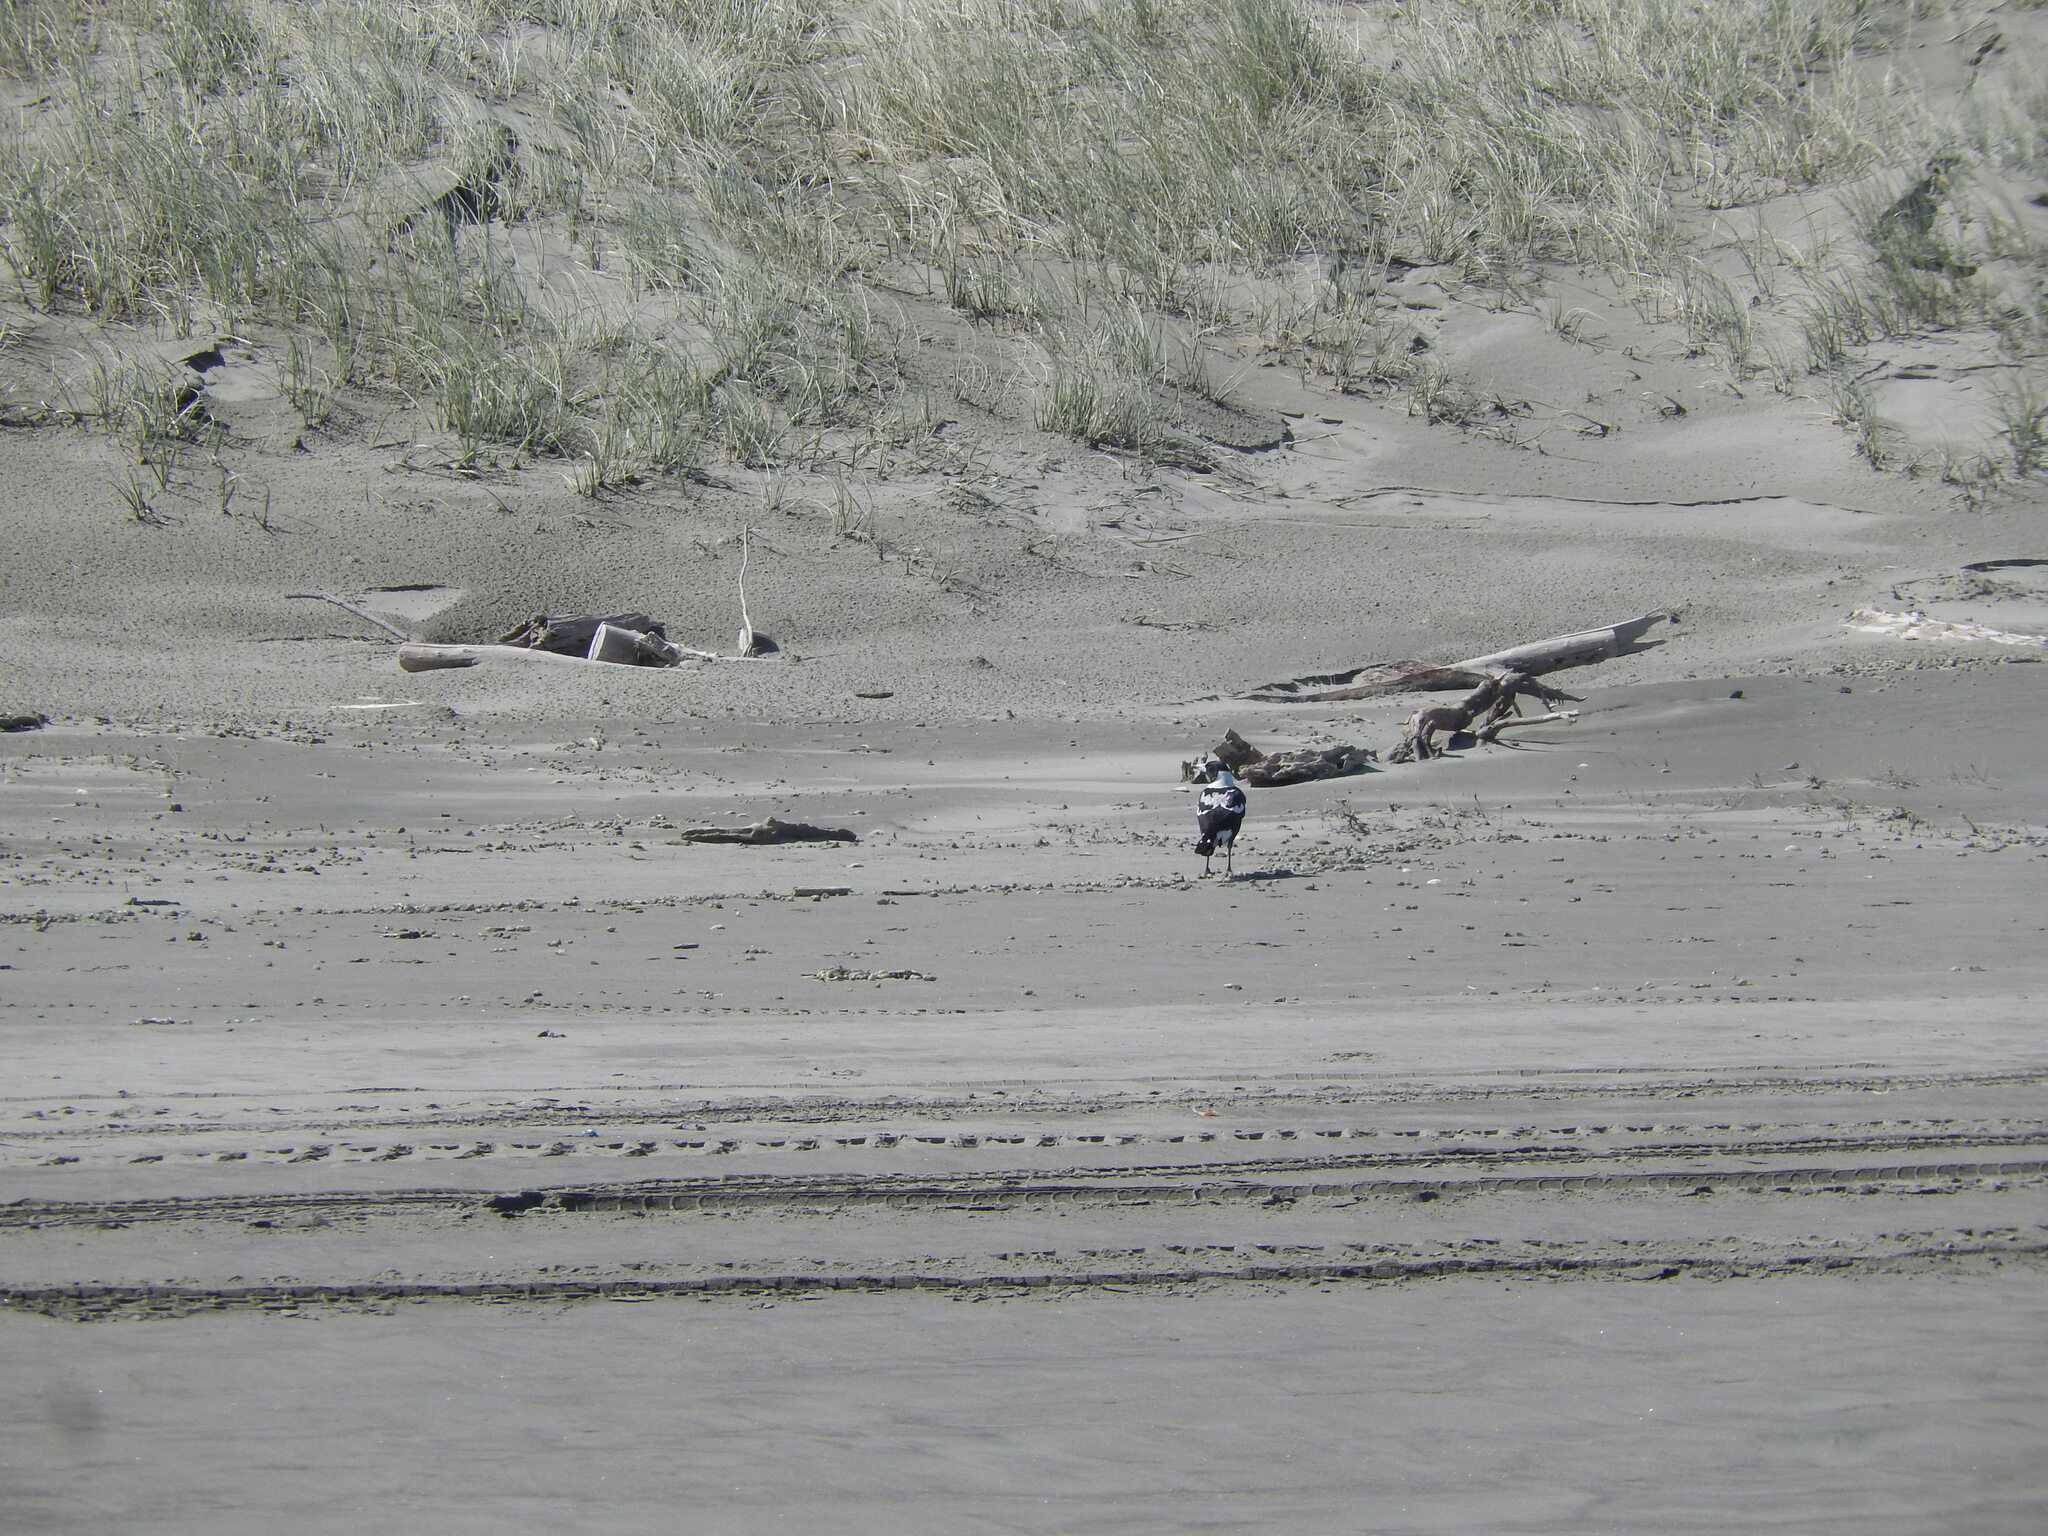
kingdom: Animalia
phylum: Chordata
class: Aves
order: Passeriformes
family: Cracticidae
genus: Gymnorhina
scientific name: Gymnorhina tibicen
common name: Australian magpie
